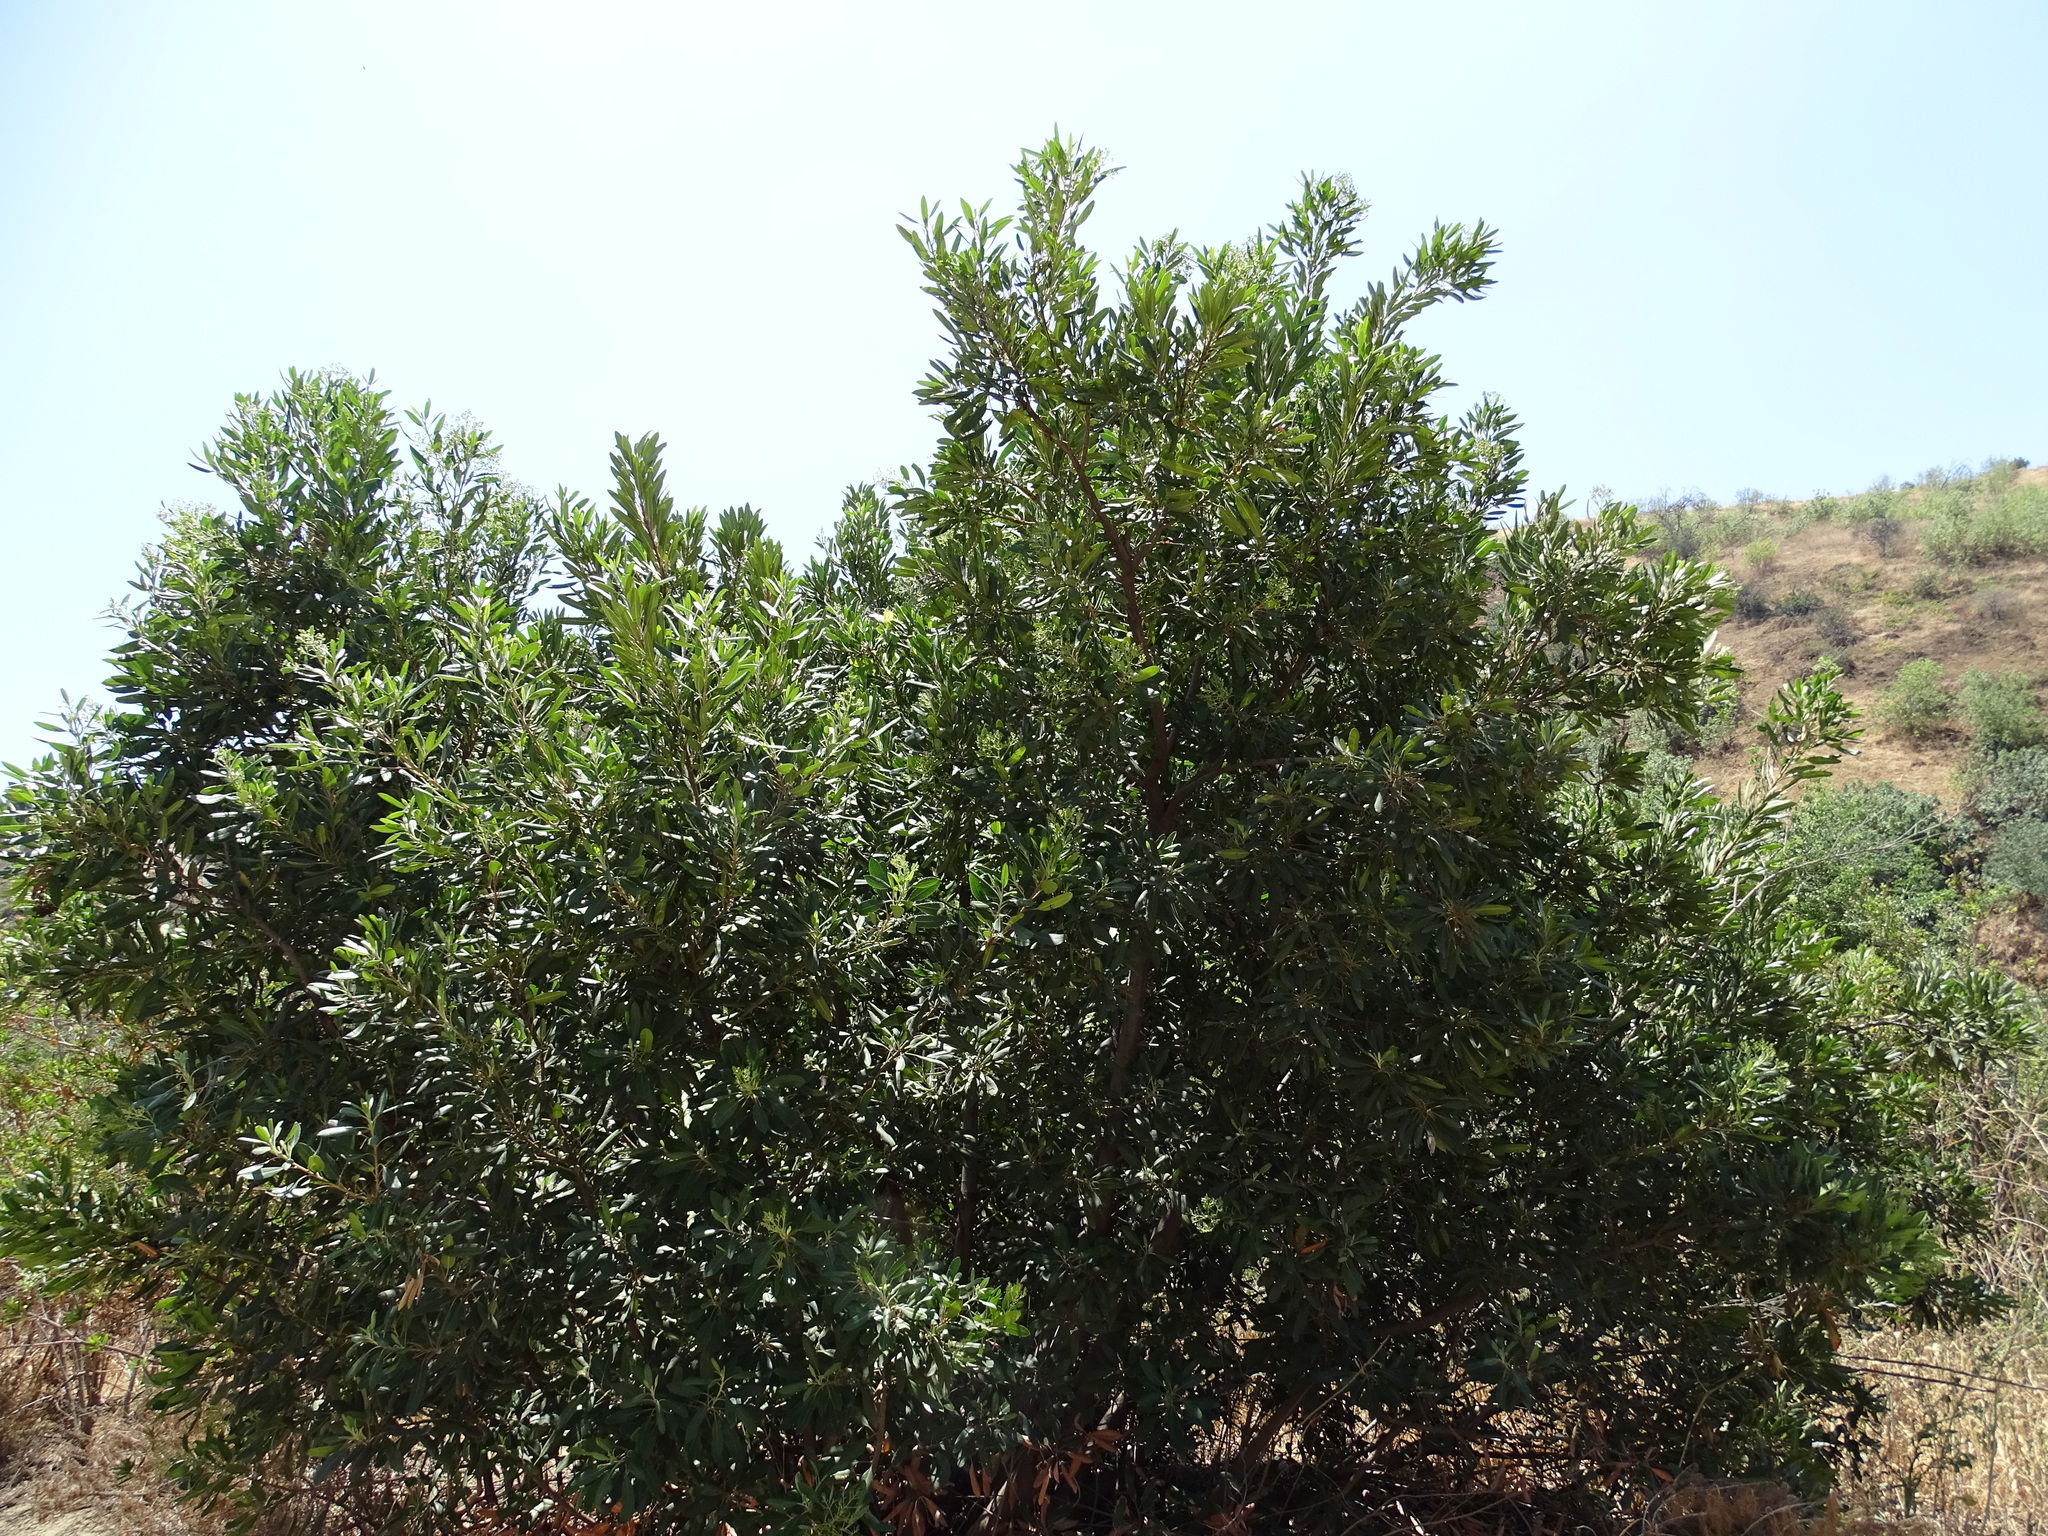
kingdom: Plantae
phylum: Tracheophyta
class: Magnoliopsida
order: Rosales
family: Rosaceae
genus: Heteromeles
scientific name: Heteromeles arbutifolia
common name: California-holly
